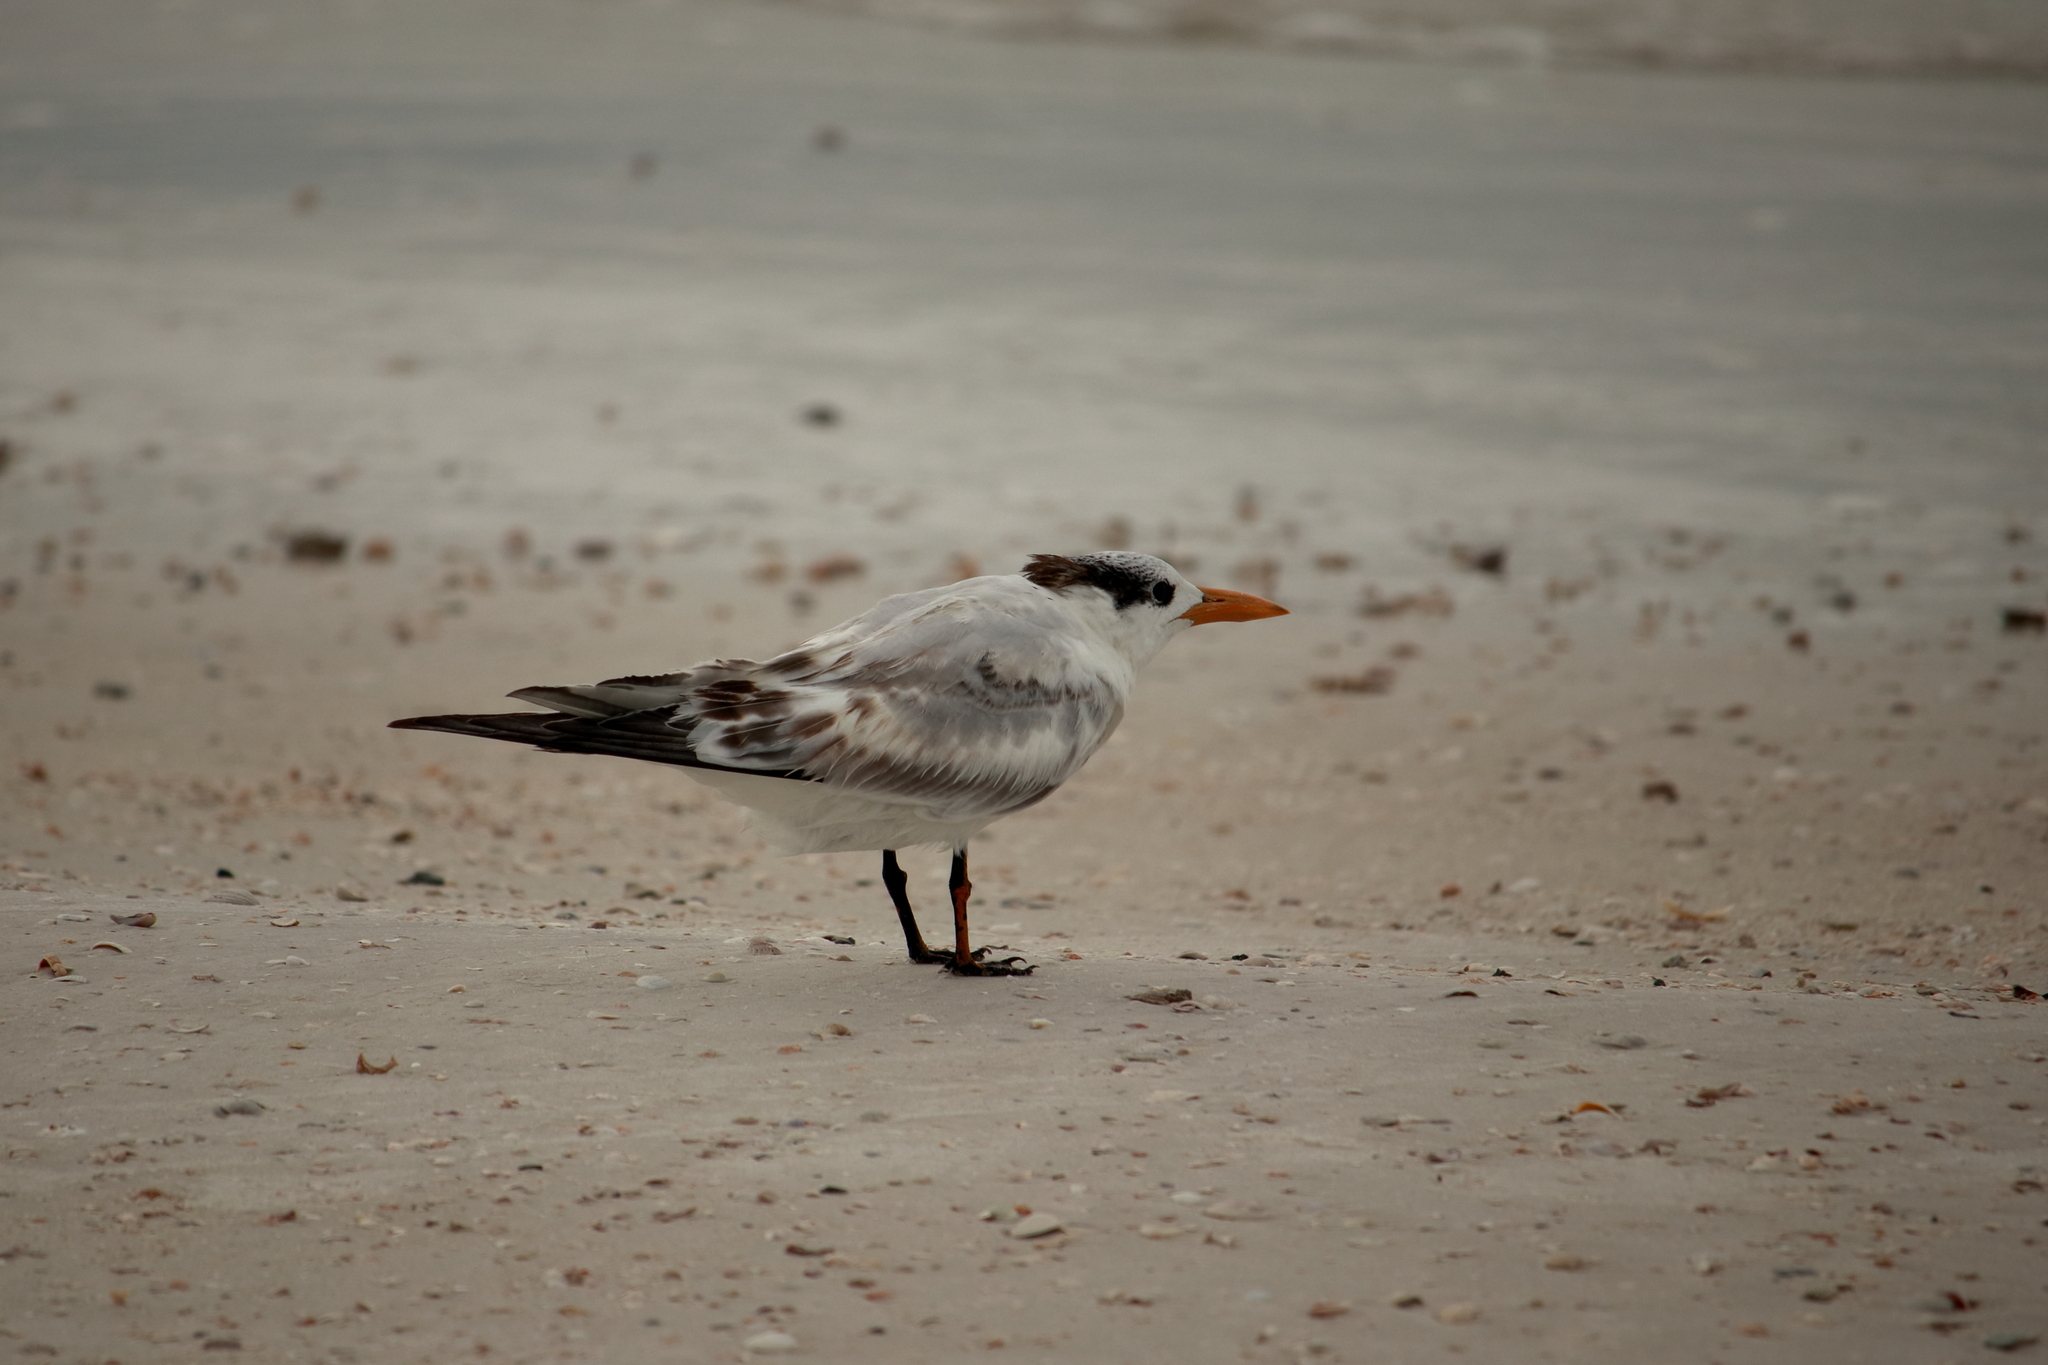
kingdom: Animalia
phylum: Chordata
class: Aves
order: Charadriiformes
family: Laridae
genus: Thalasseus
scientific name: Thalasseus maximus
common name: Royal tern
